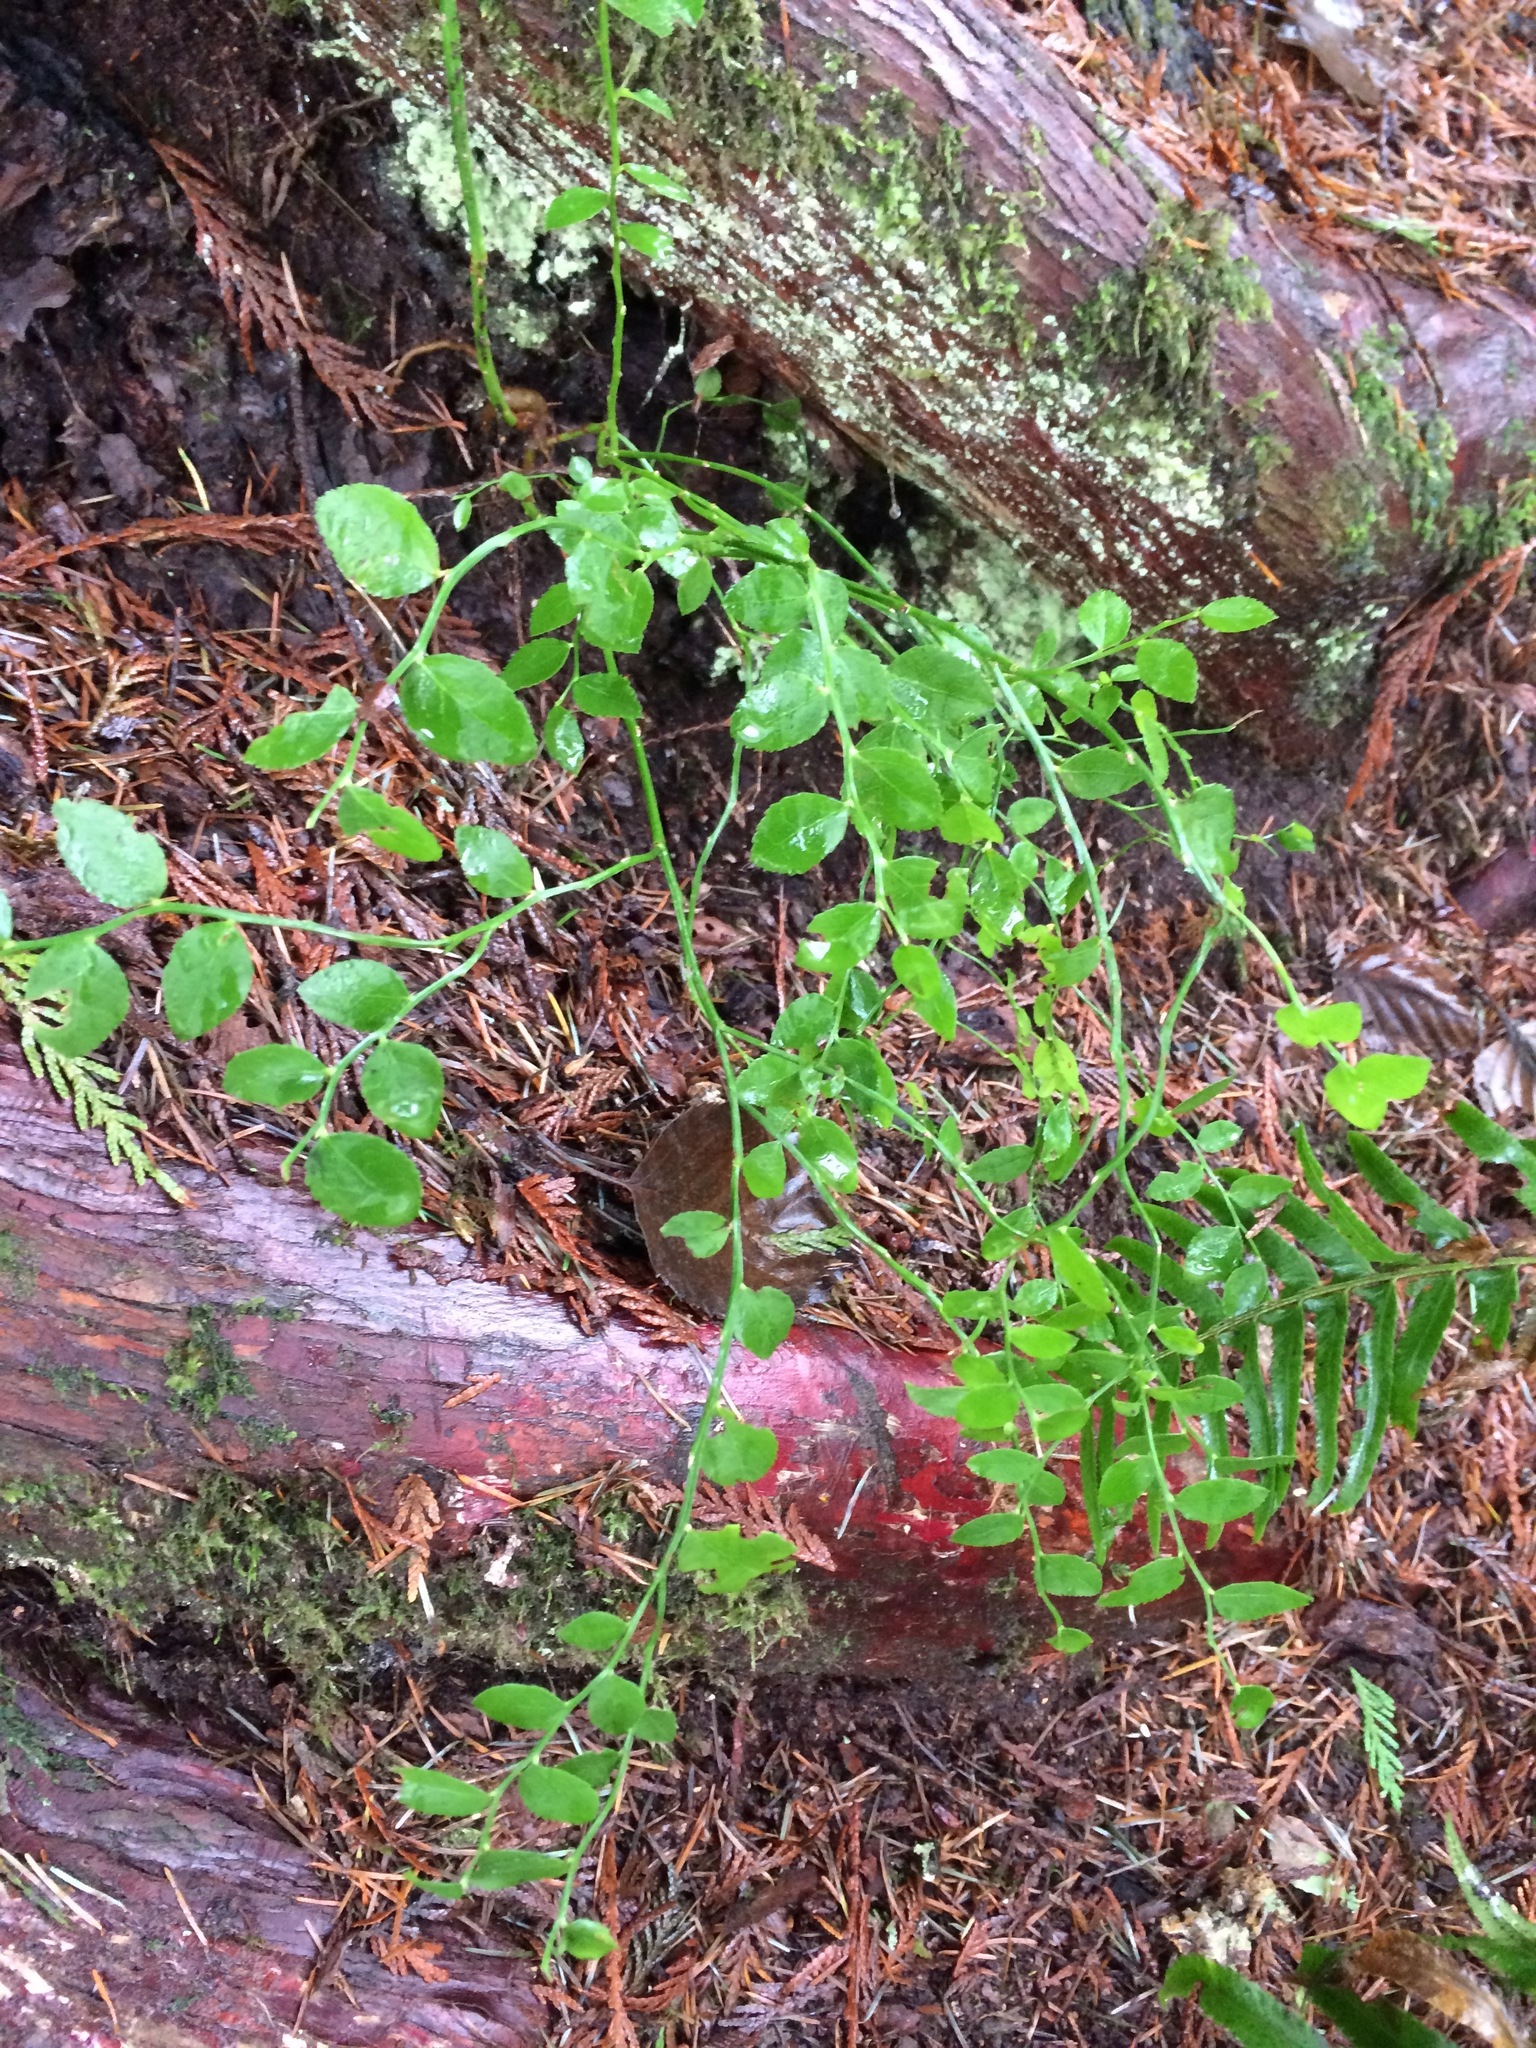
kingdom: Plantae
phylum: Tracheophyta
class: Magnoliopsida
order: Ericales
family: Ericaceae
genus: Vaccinium
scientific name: Vaccinium parvifolium
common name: Red-huckleberry
